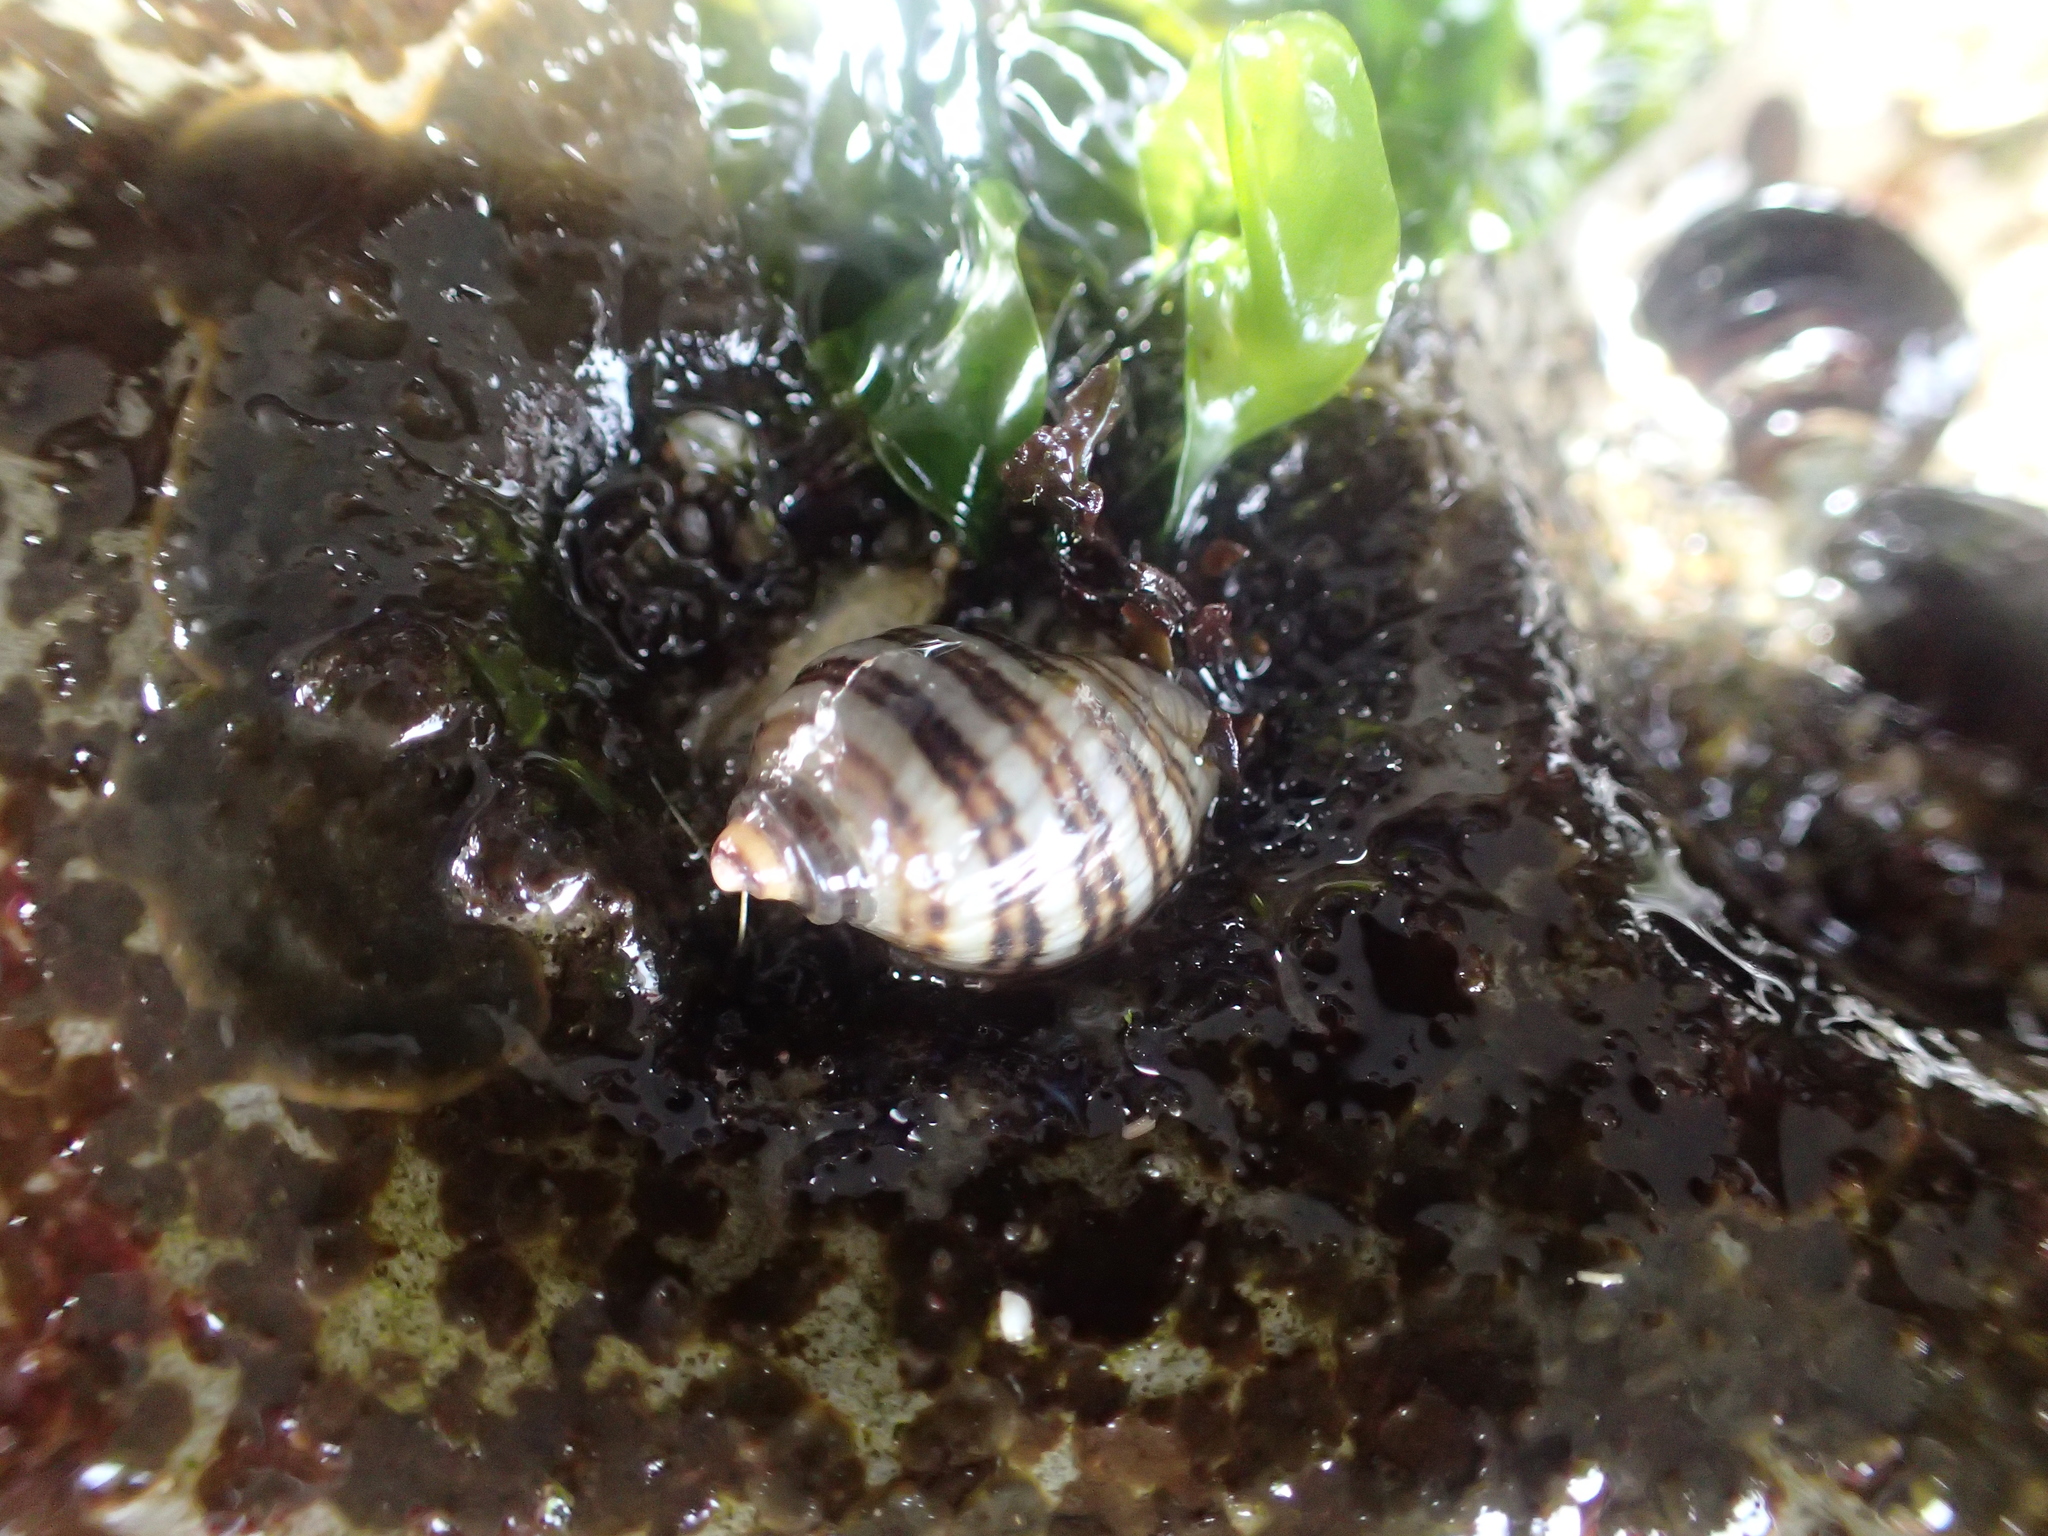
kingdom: Animalia
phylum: Mollusca
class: Gastropoda
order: Neogastropoda
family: Muricidae
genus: Nucella
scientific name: Nucella ostrina
